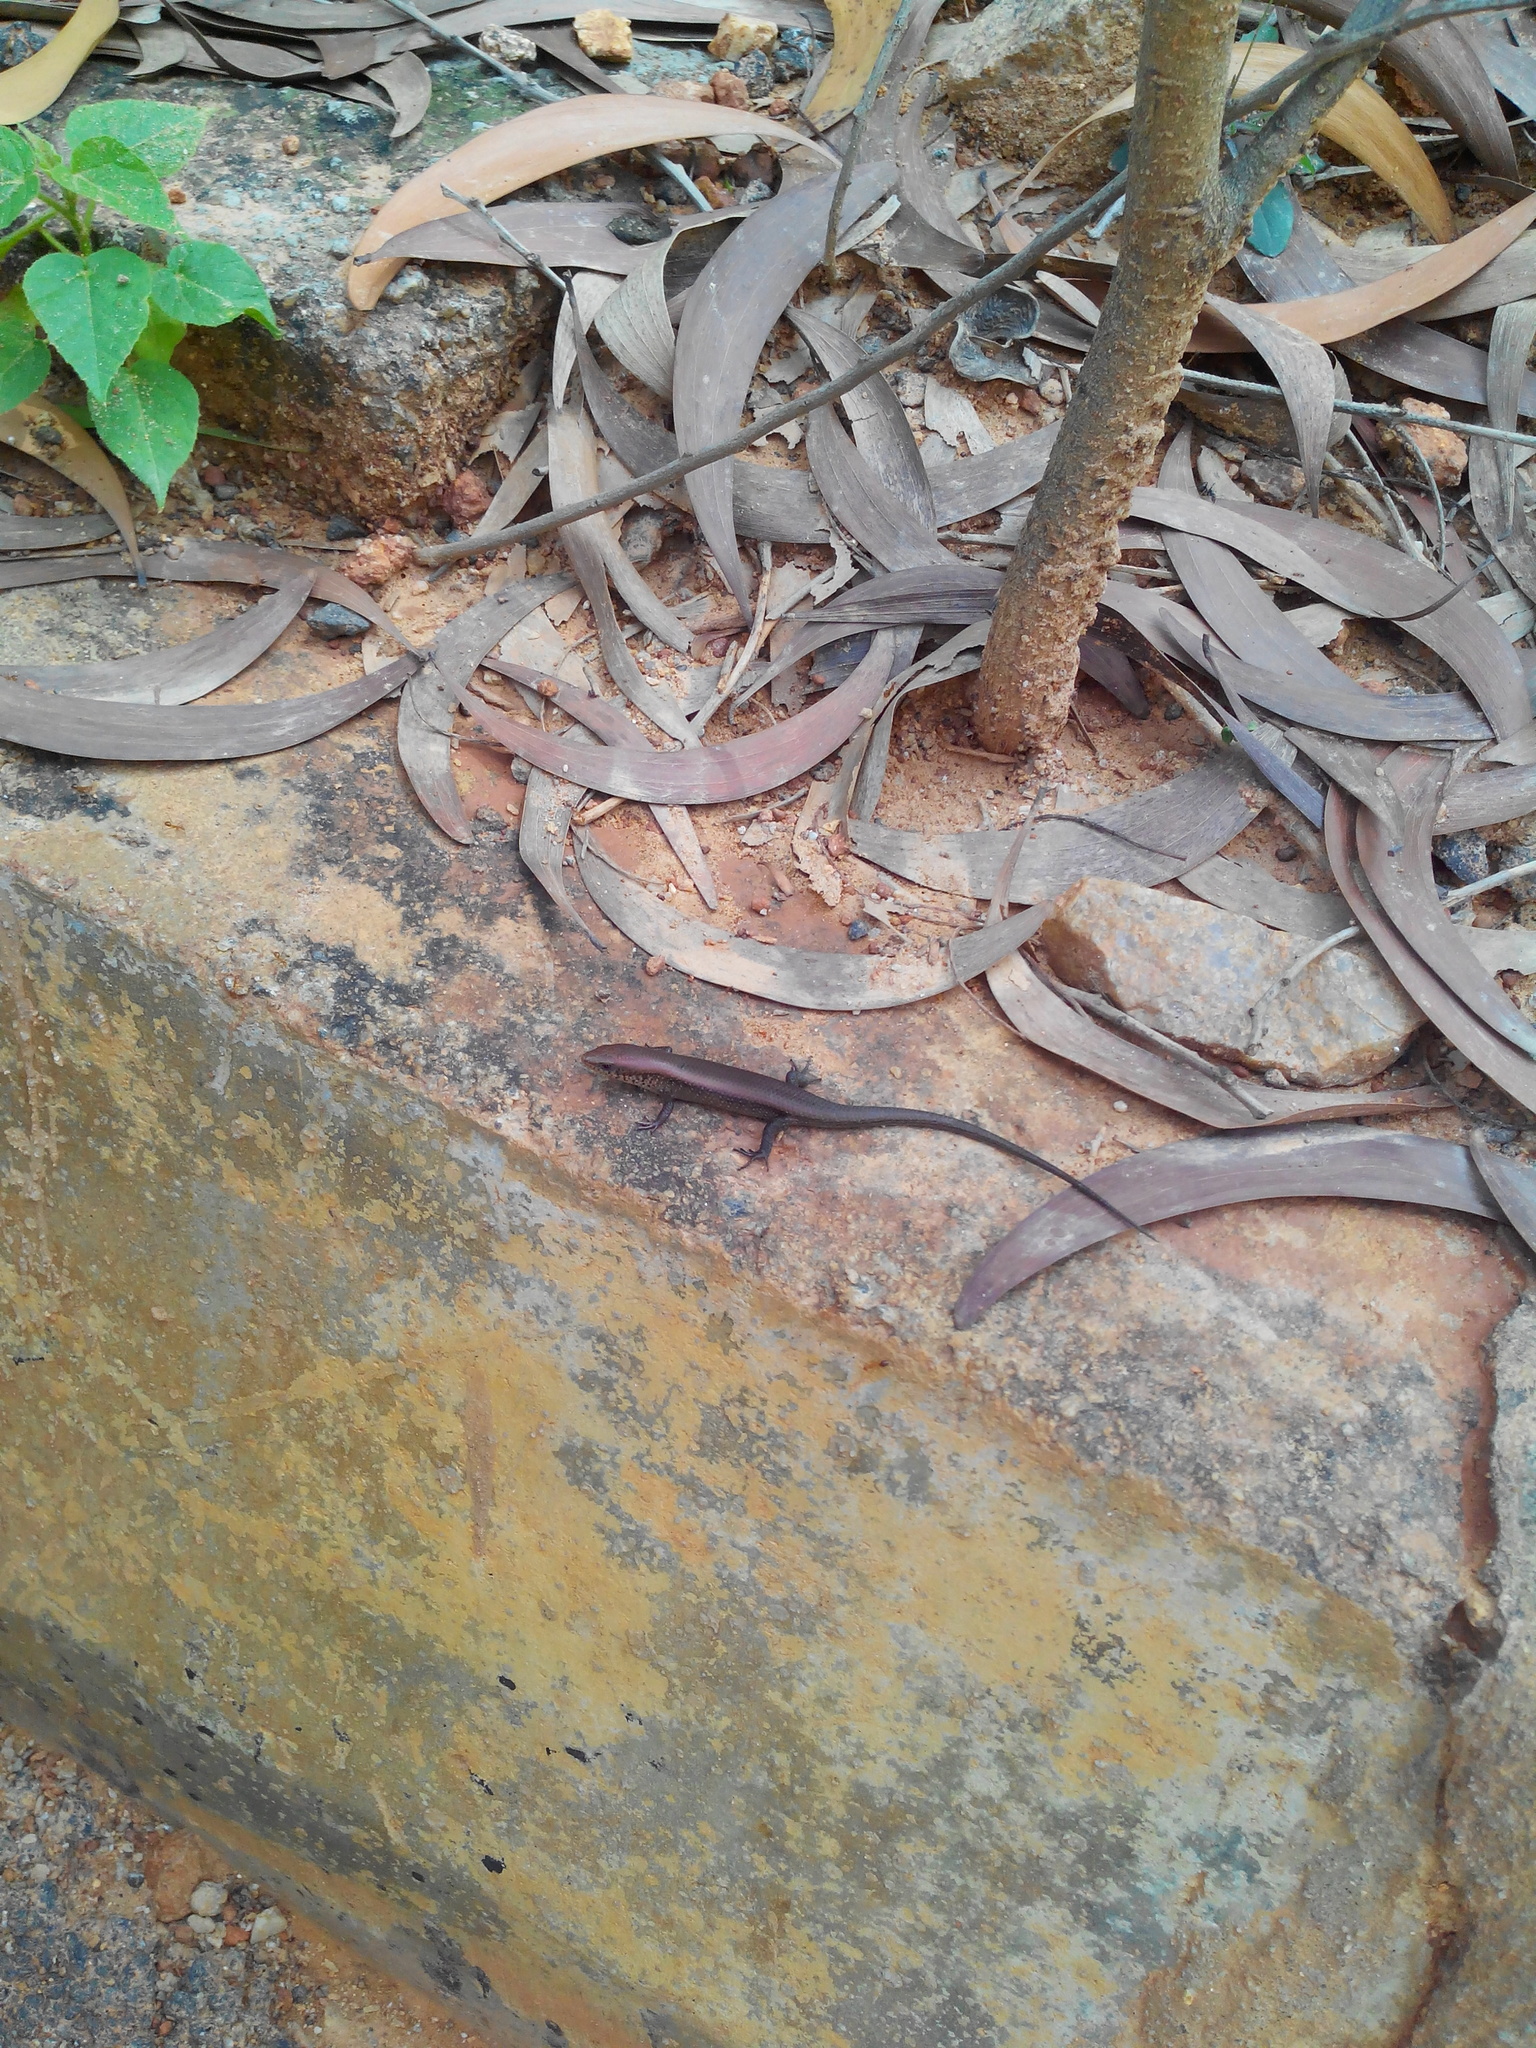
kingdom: Animalia
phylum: Chordata
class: Squamata
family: Scincidae
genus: Eutropis
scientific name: Eutropis macularia
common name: Bronze mabuya
